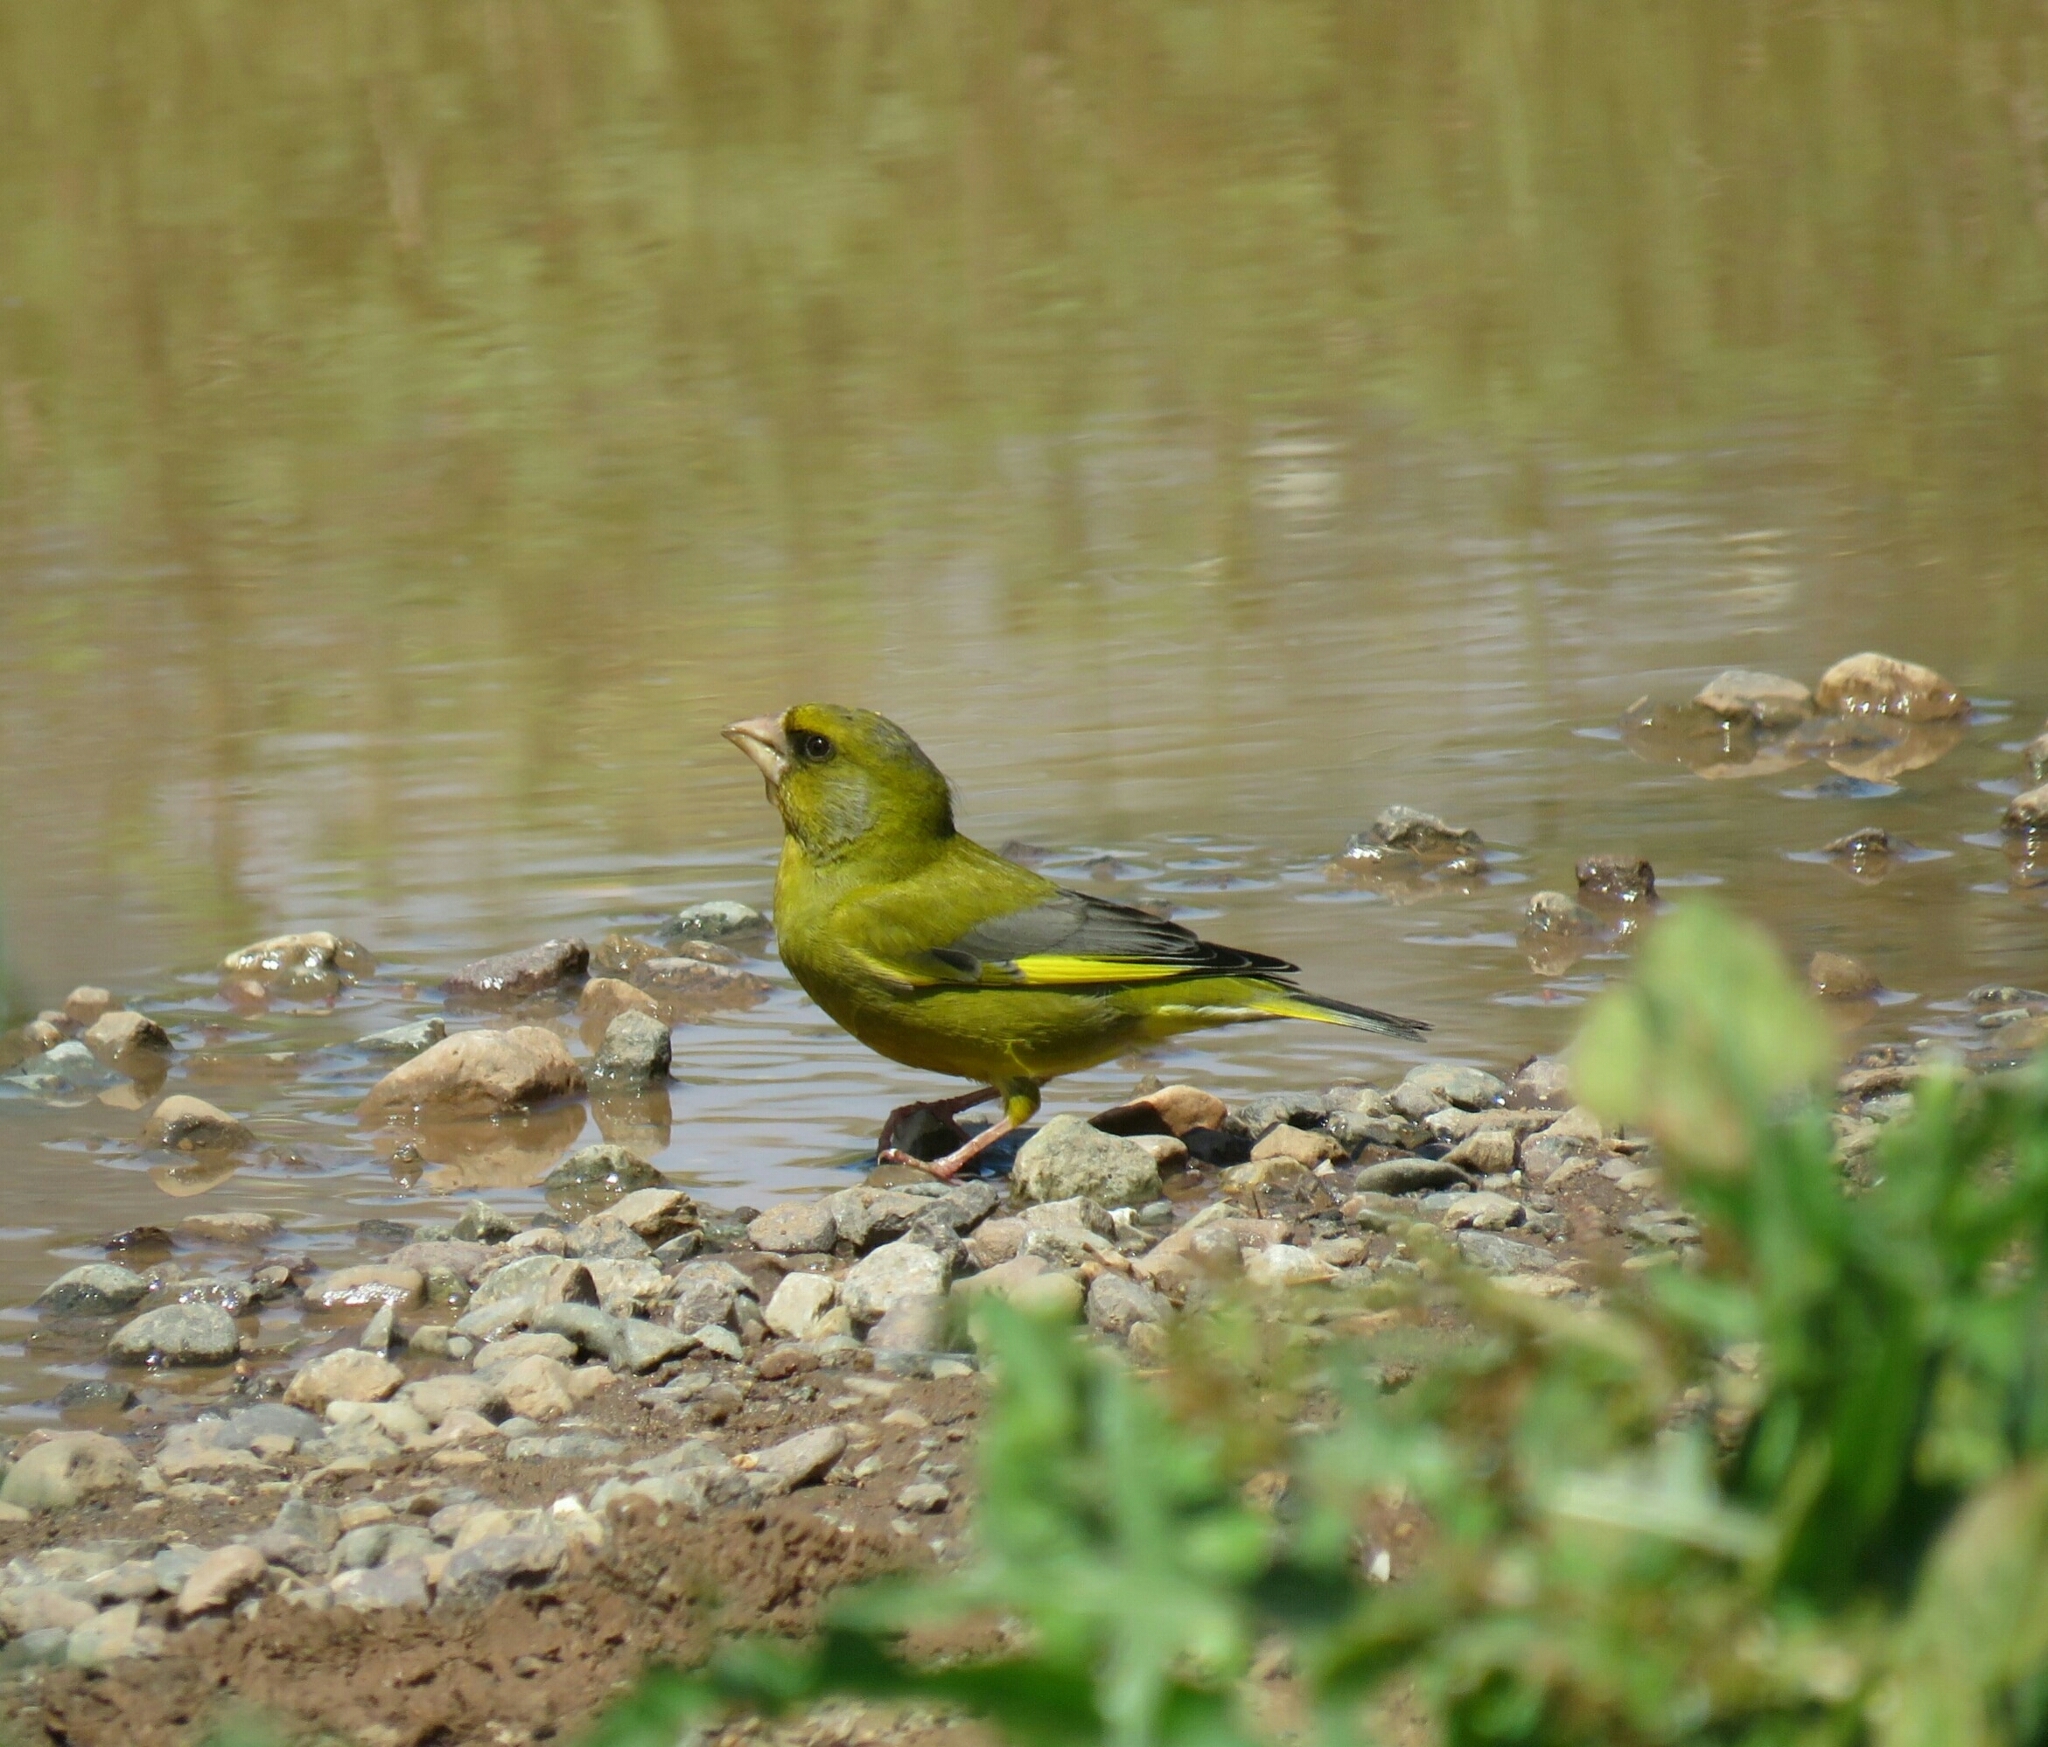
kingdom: Plantae
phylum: Tracheophyta
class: Liliopsida
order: Poales
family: Poaceae
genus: Chloris
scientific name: Chloris chloris
